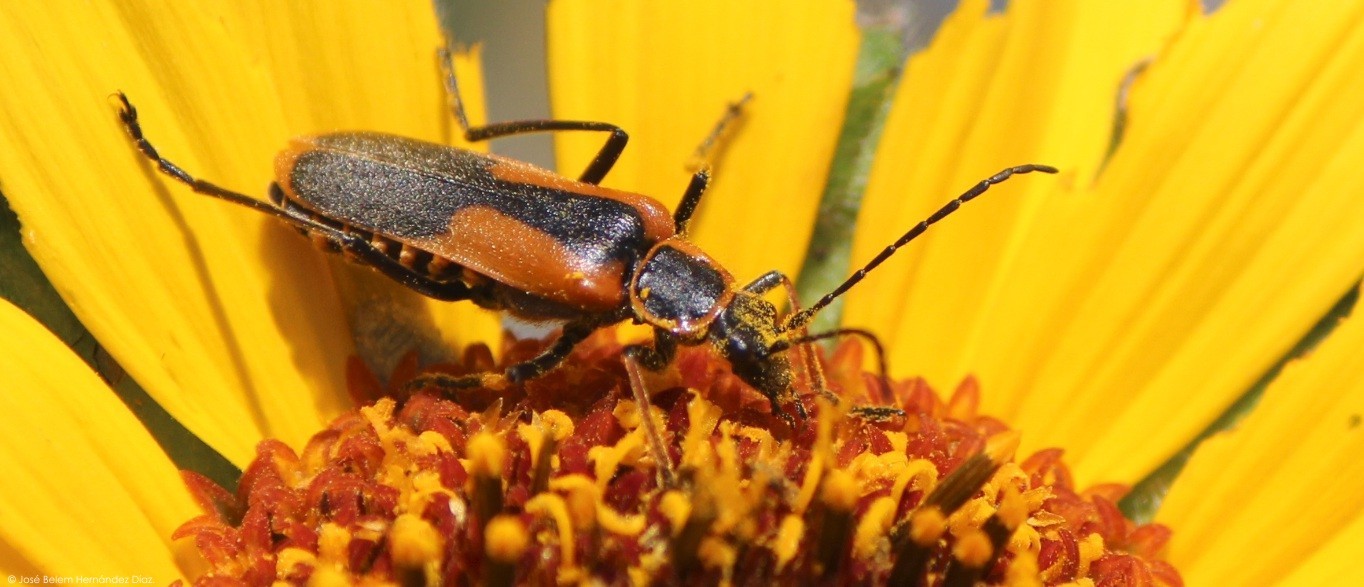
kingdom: Animalia
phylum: Arthropoda
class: Insecta
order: Coleoptera
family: Cantharidae
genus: Chauliognathus
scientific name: Chauliognathus limbicollis
